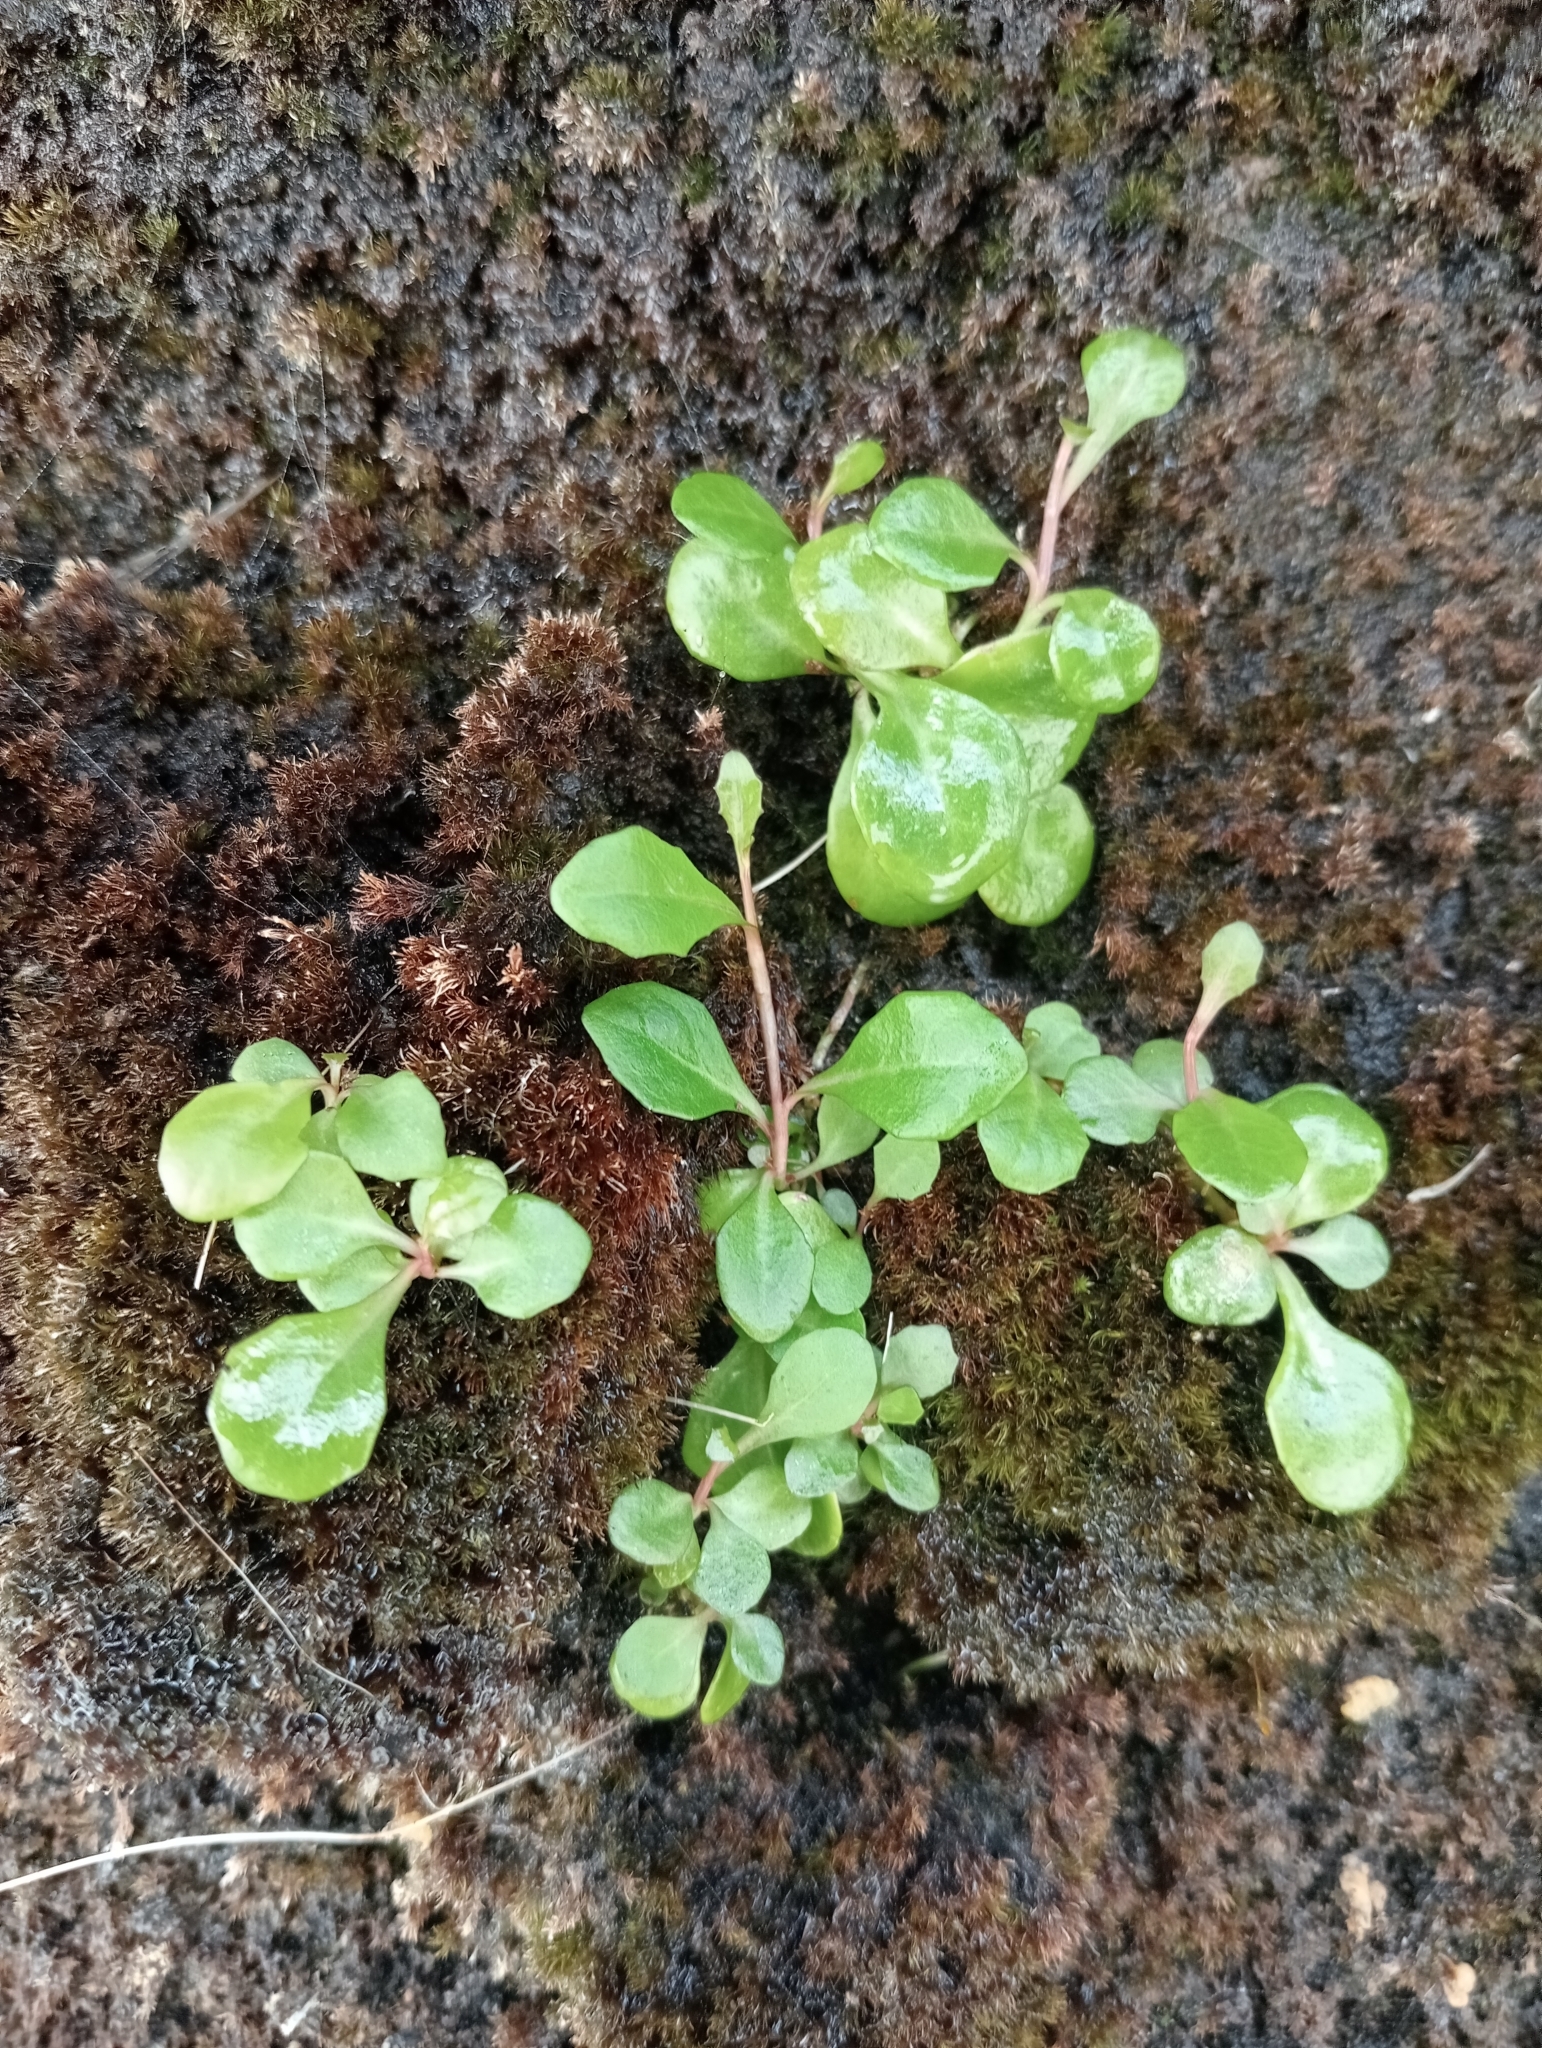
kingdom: Plantae
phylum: Tracheophyta
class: Magnoliopsida
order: Asterales
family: Campanulaceae
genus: Lobelia
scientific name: Lobelia anceps
